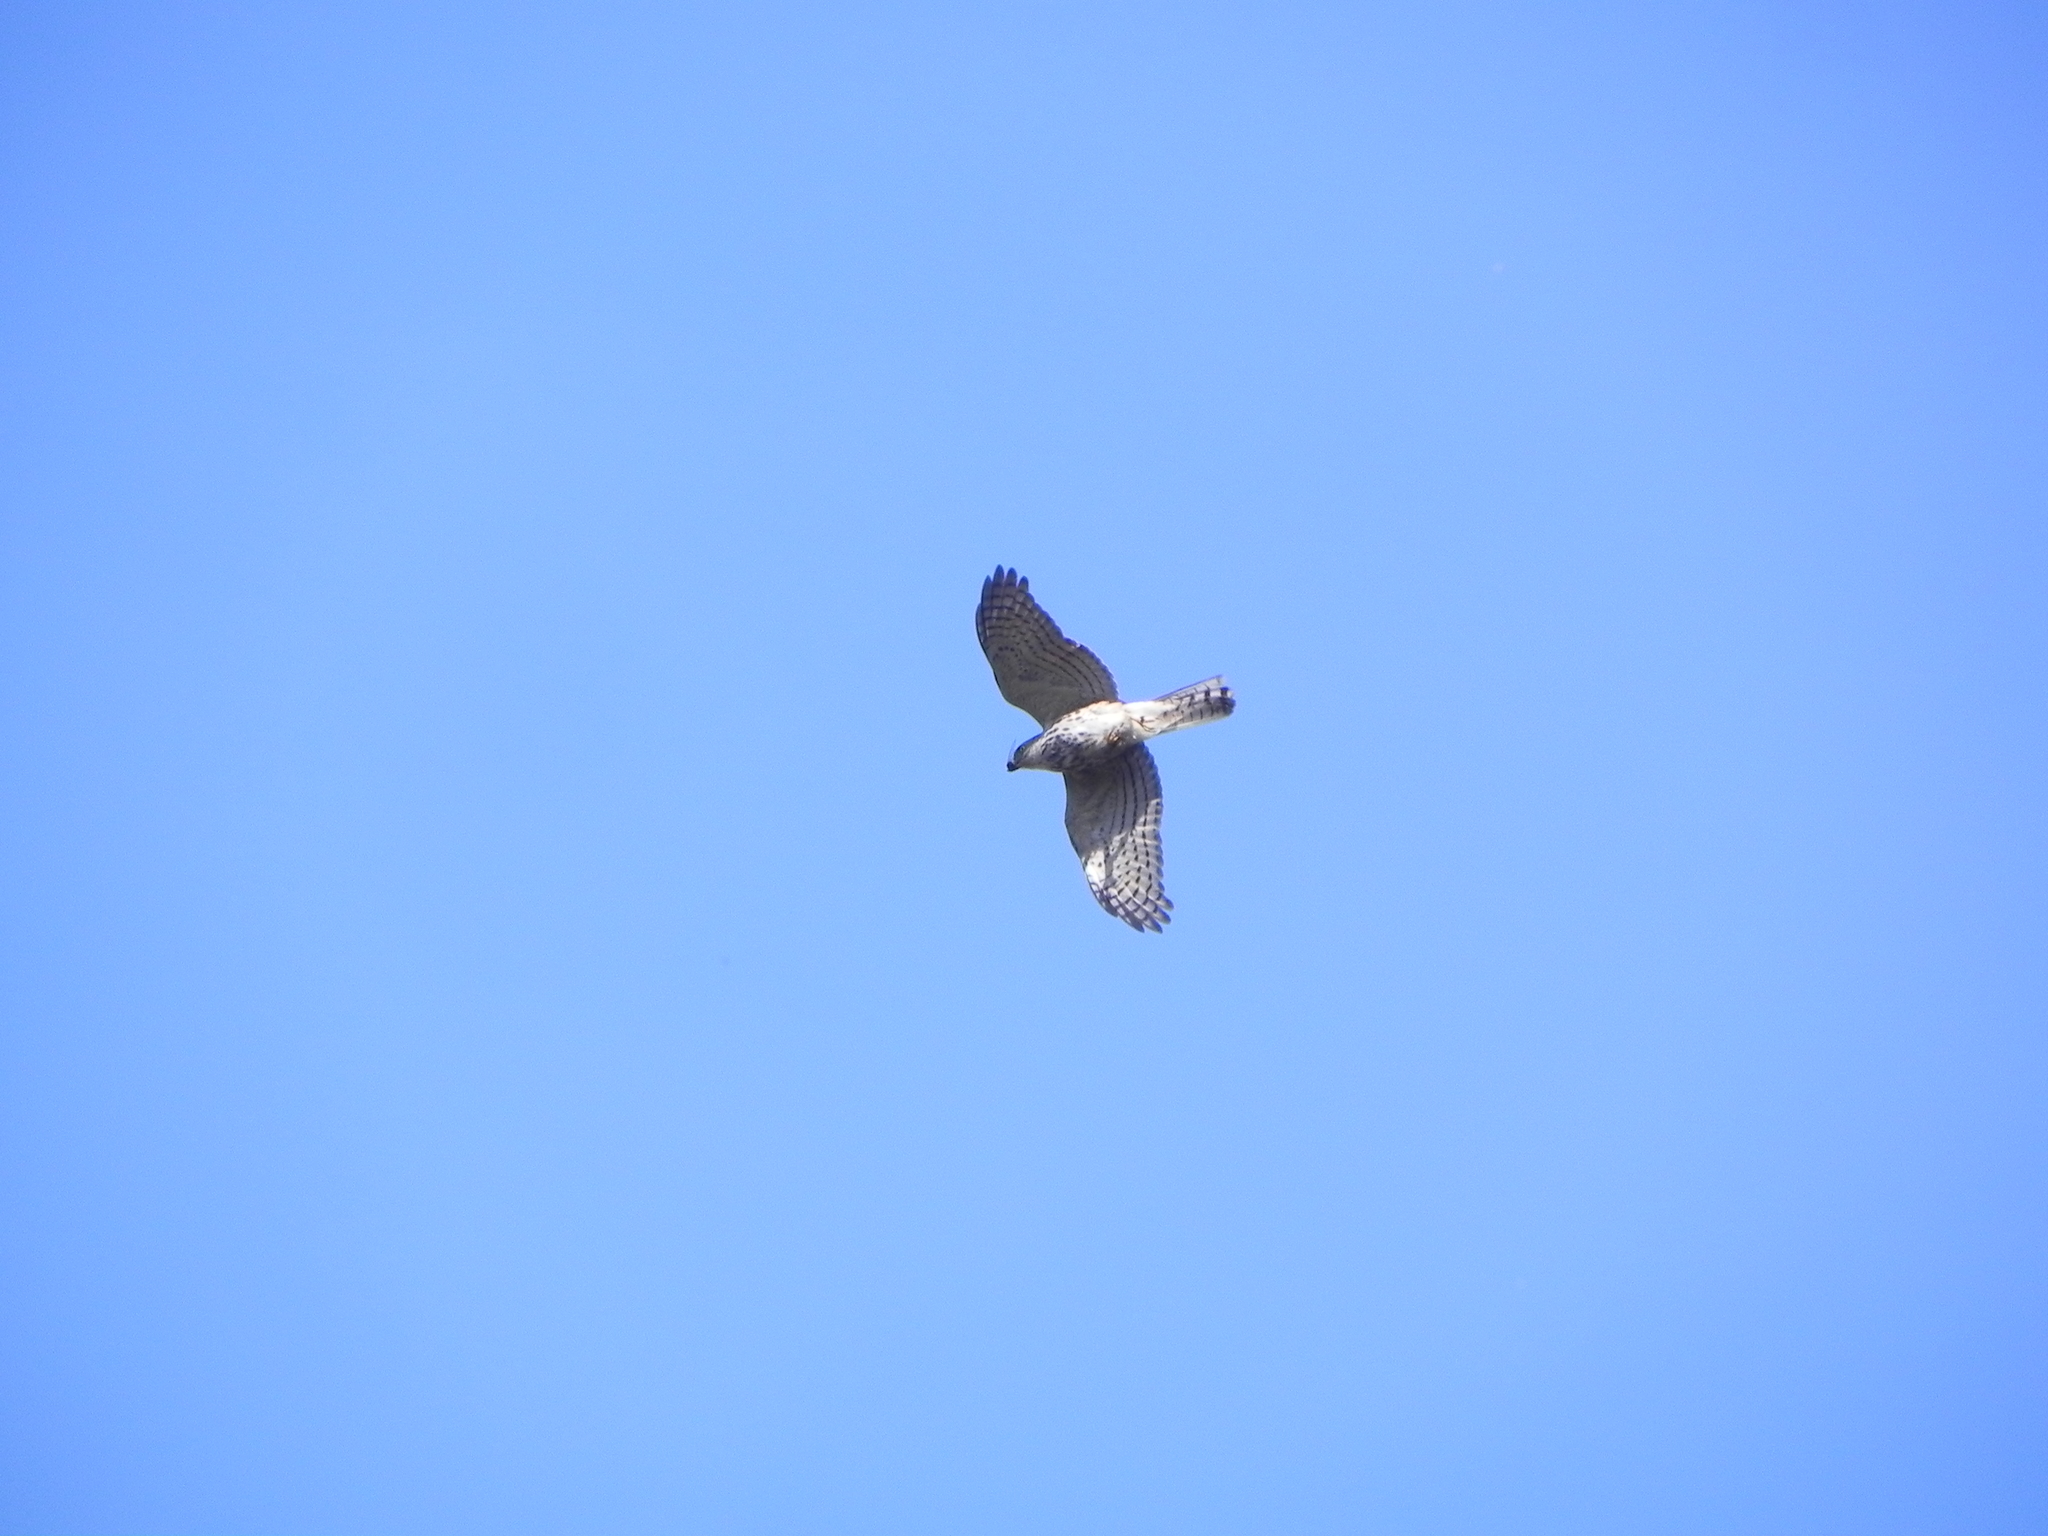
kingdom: Animalia
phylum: Chordata
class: Aves
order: Accipitriformes
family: Accipitridae
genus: Accipiter
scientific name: Accipiter badius
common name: Shikra
